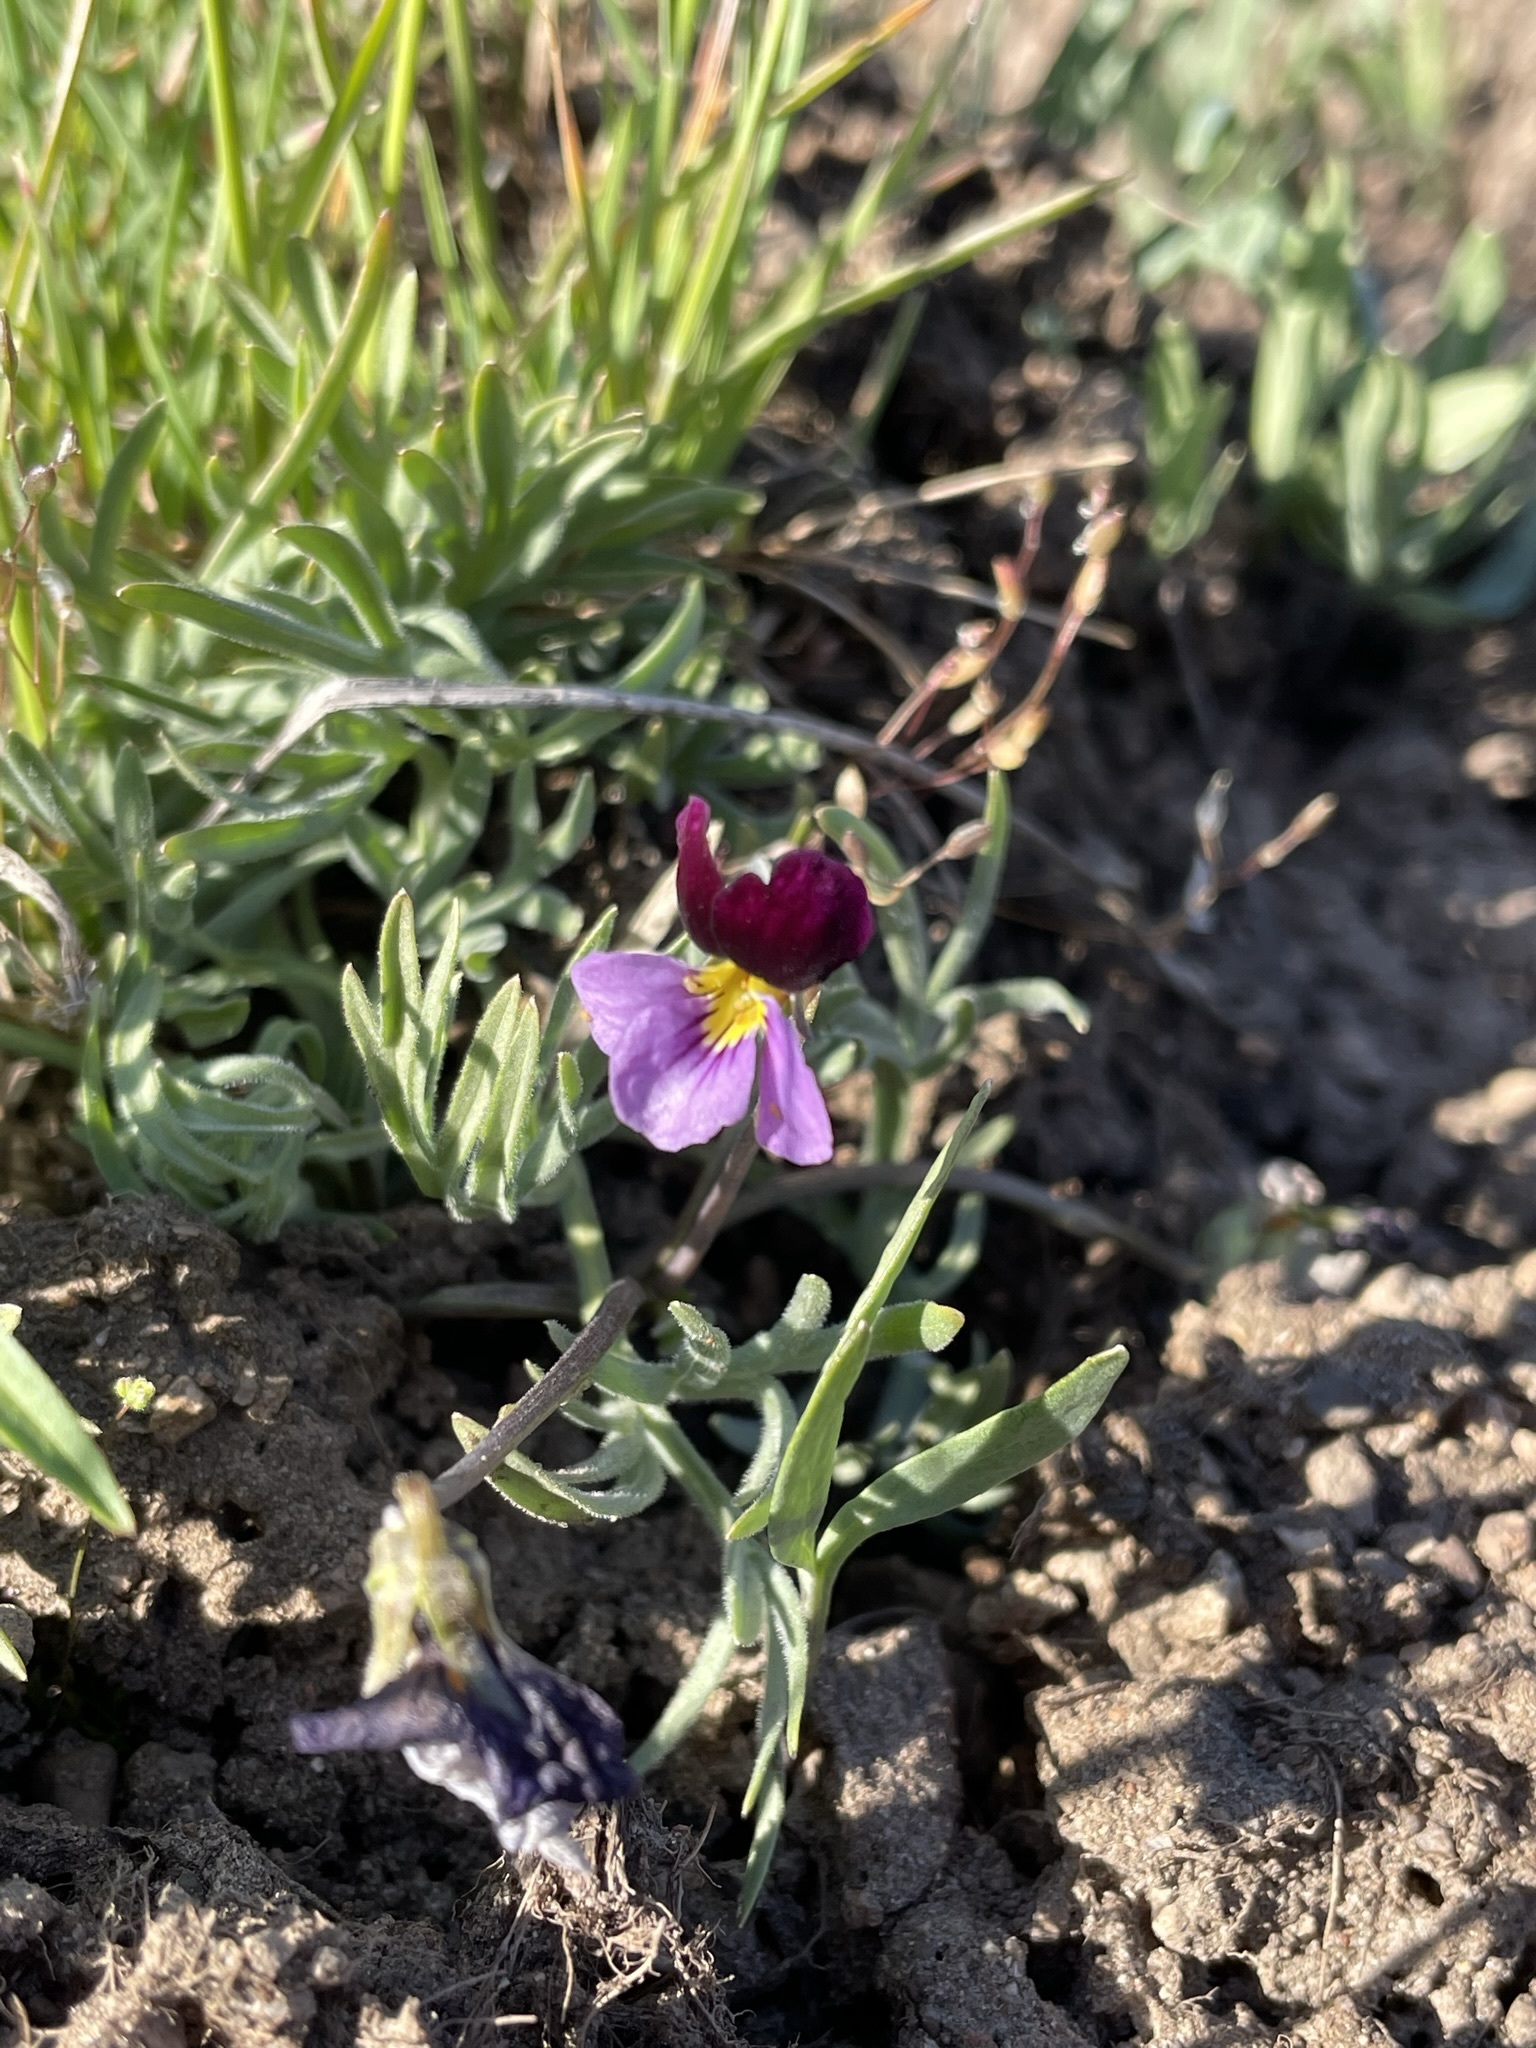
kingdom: Plantae
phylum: Tracheophyta
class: Magnoliopsida
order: Malpighiales
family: Violaceae
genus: Viola
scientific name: Viola beckwithii
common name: Beckwith's violet
